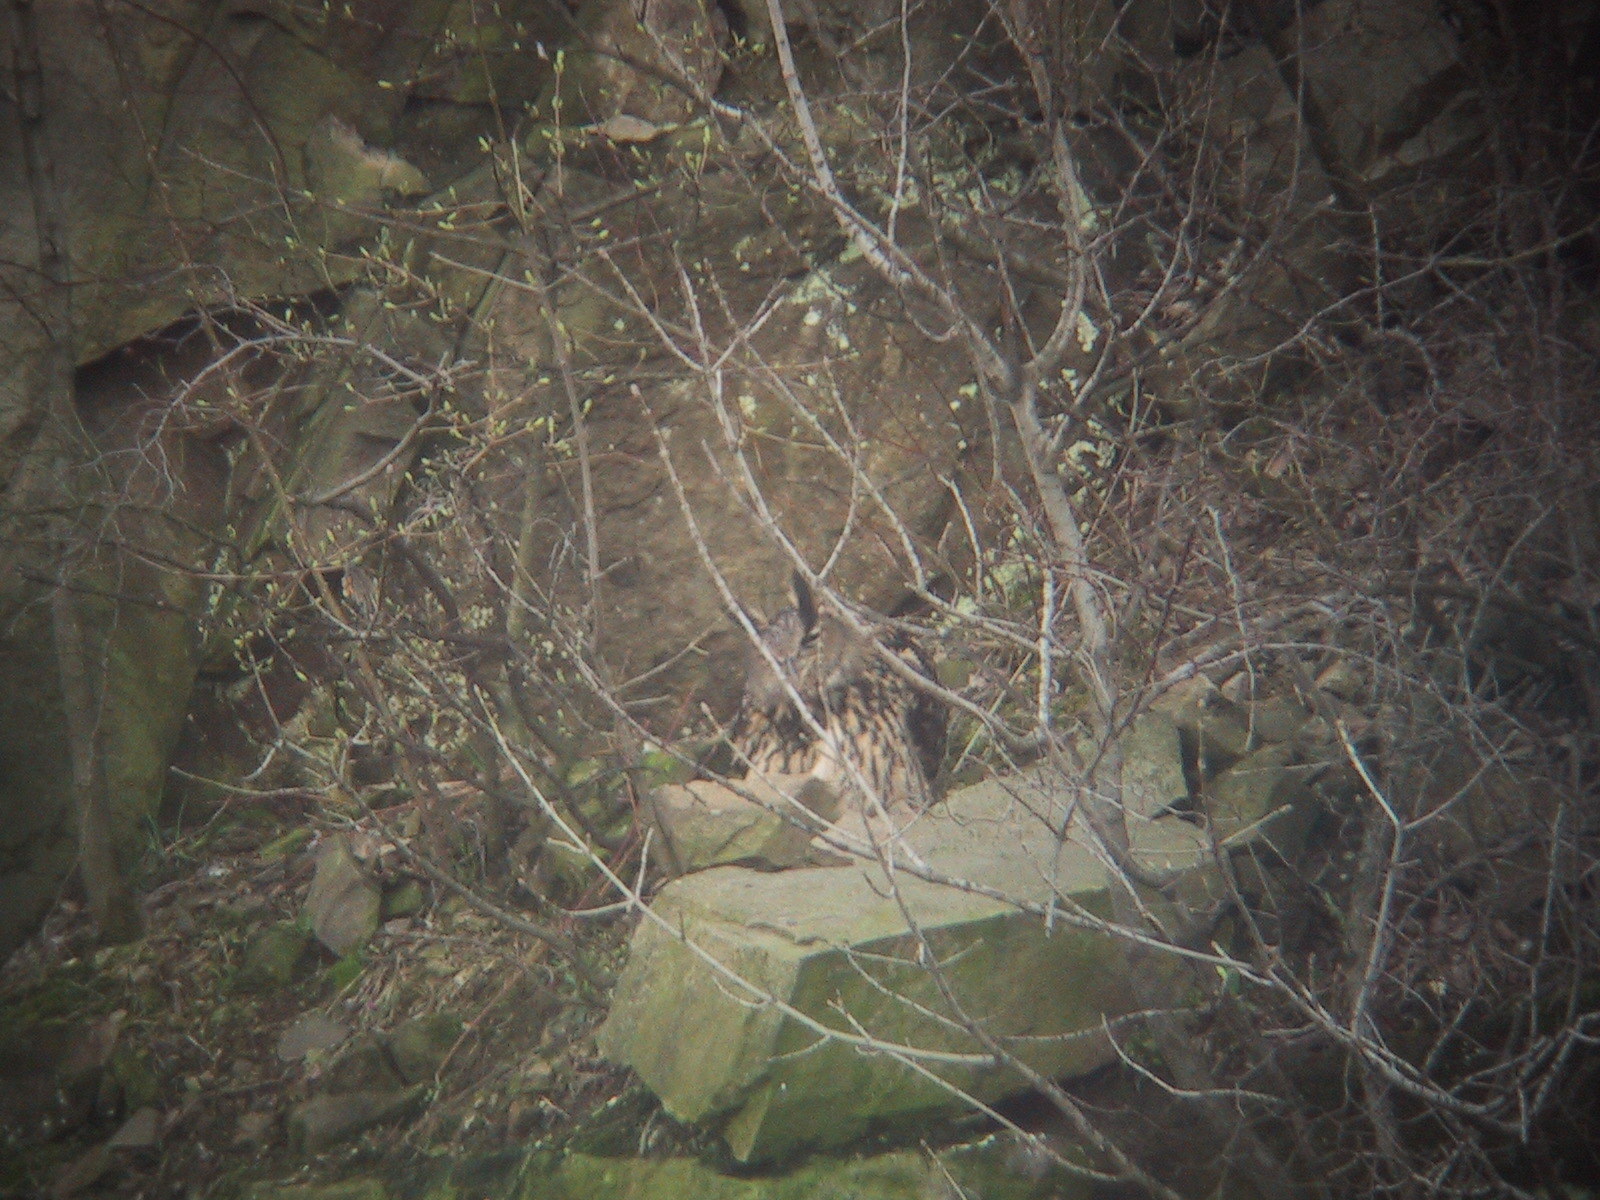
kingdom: Animalia
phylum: Chordata
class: Aves
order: Strigiformes
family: Strigidae
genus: Bubo
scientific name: Bubo bubo
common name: Eurasian eagle-owl
